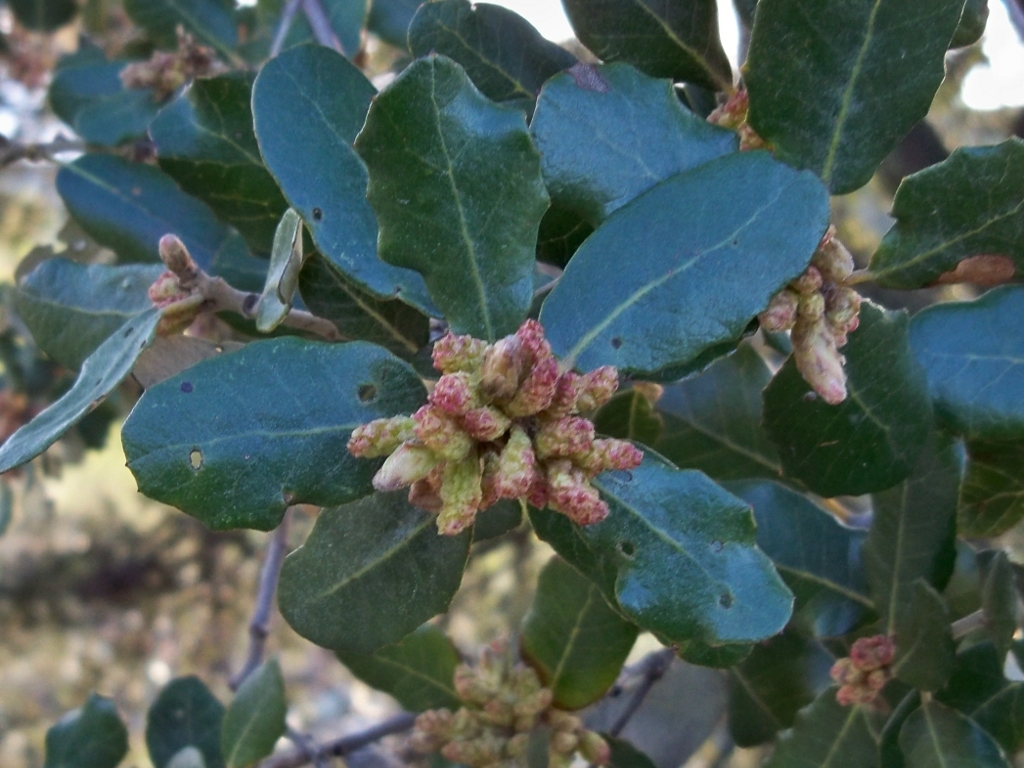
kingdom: Plantae
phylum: Tracheophyta
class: Magnoliopsida
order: Fagales
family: Fagaceae
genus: Quercus
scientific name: Quercus rotundifolia
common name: Holm oak
